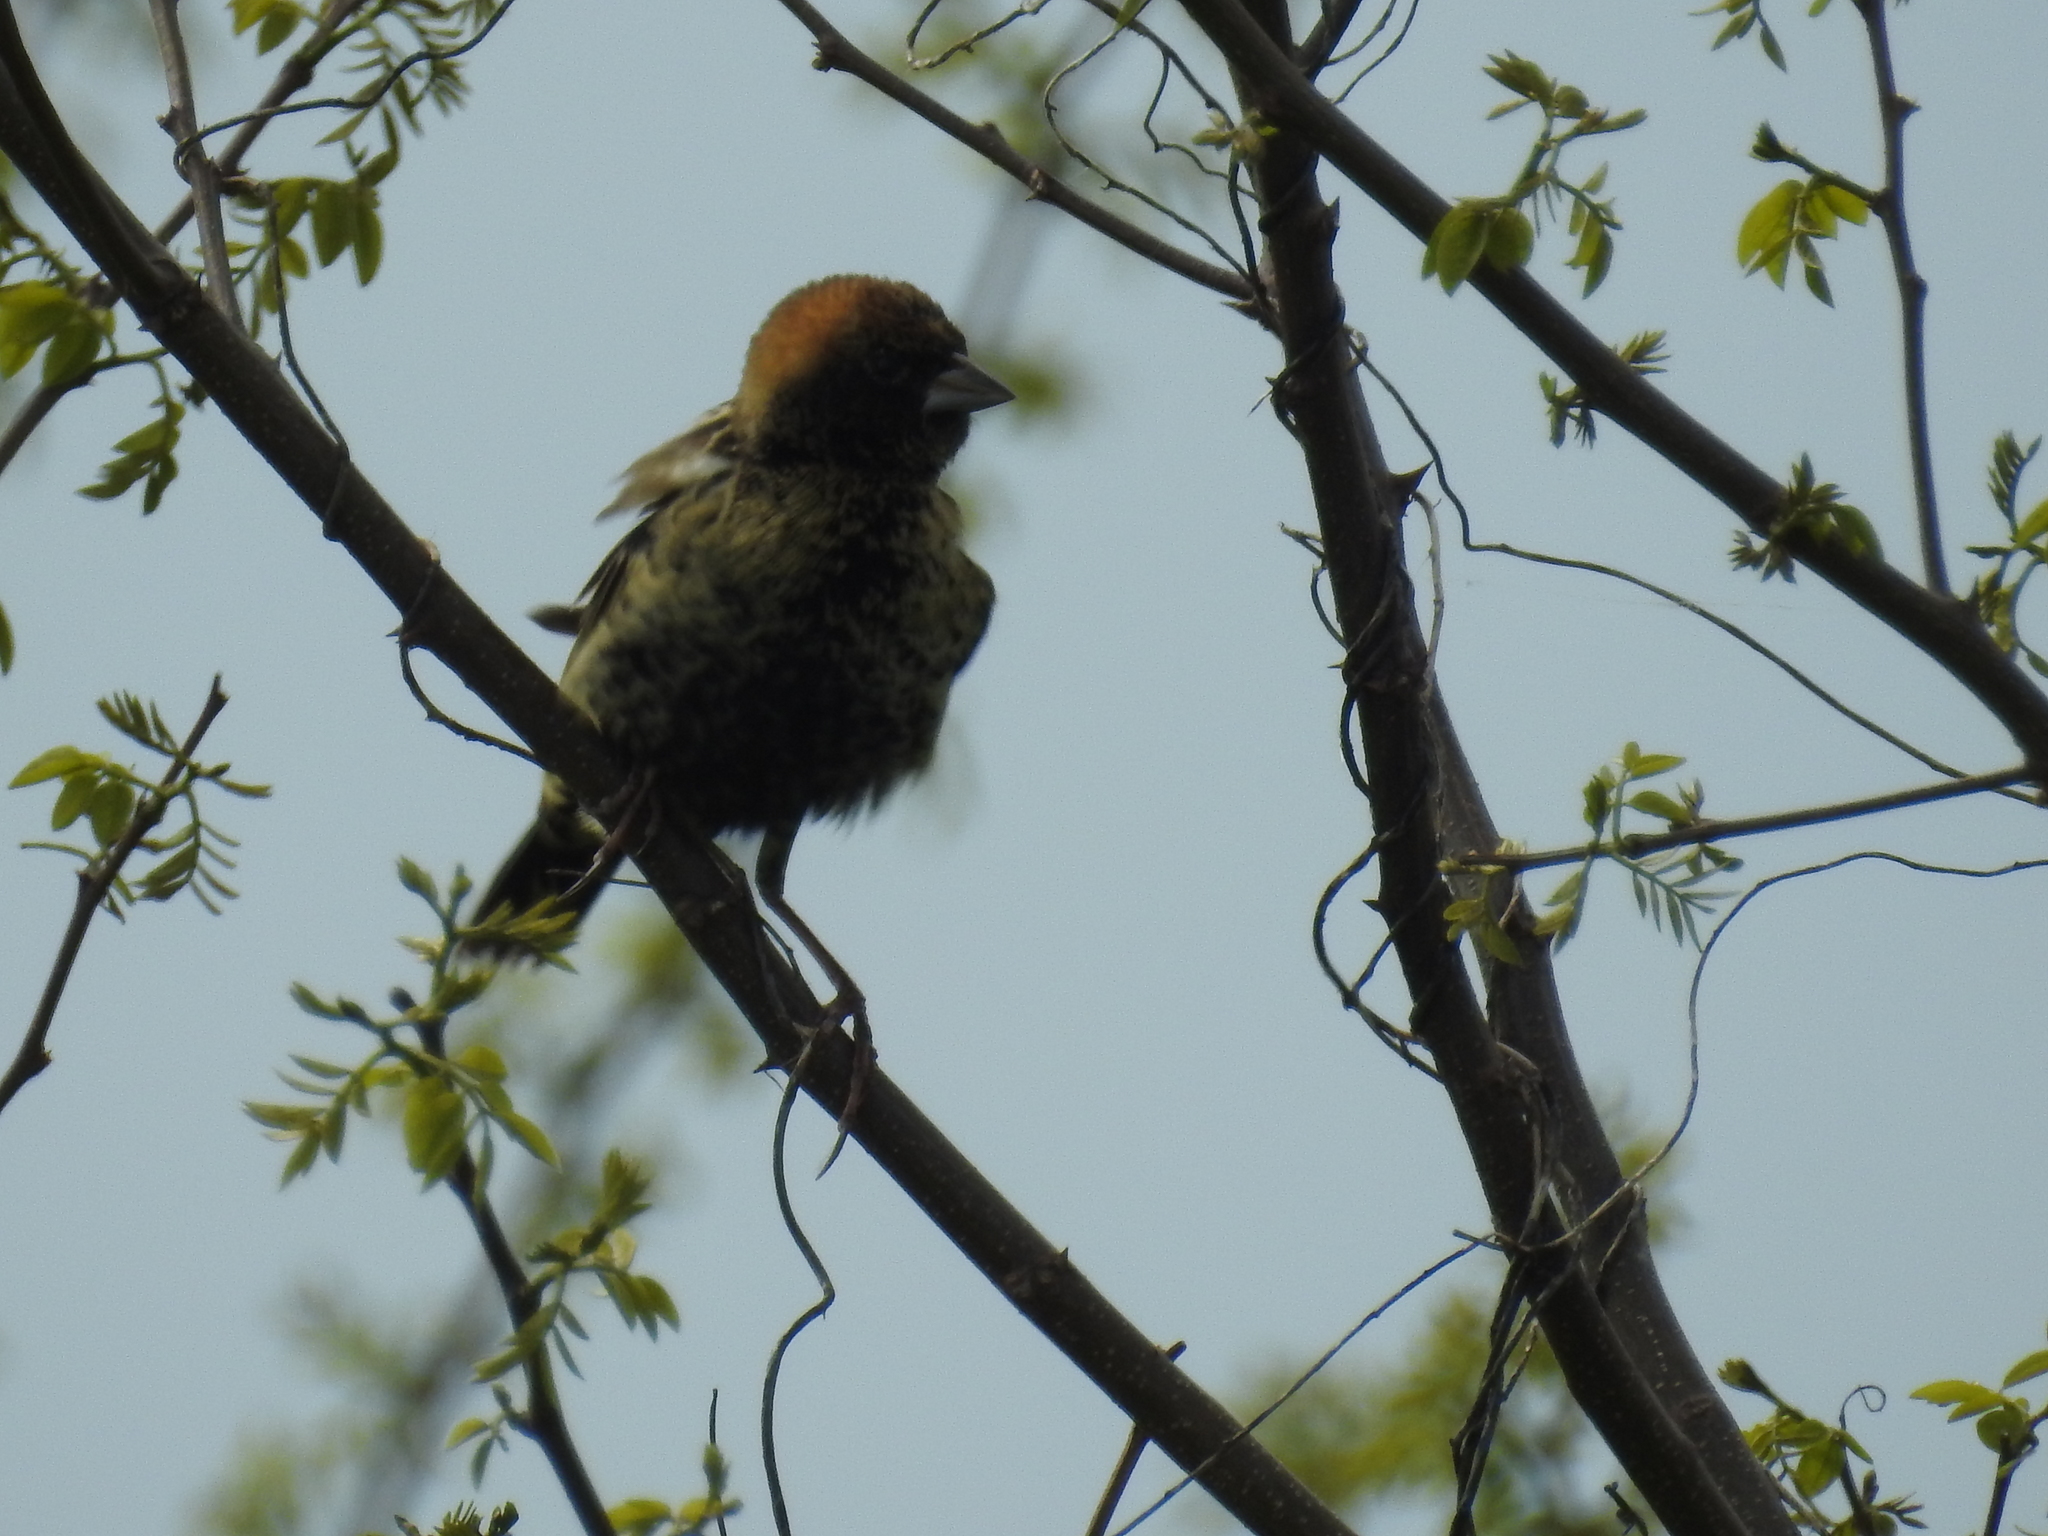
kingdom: Animalia
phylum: Chordata
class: Aves
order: Passeriformes
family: Icteridae
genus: Dolichonyx
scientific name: Dolichonyx oryzivorus
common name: Bobolink
